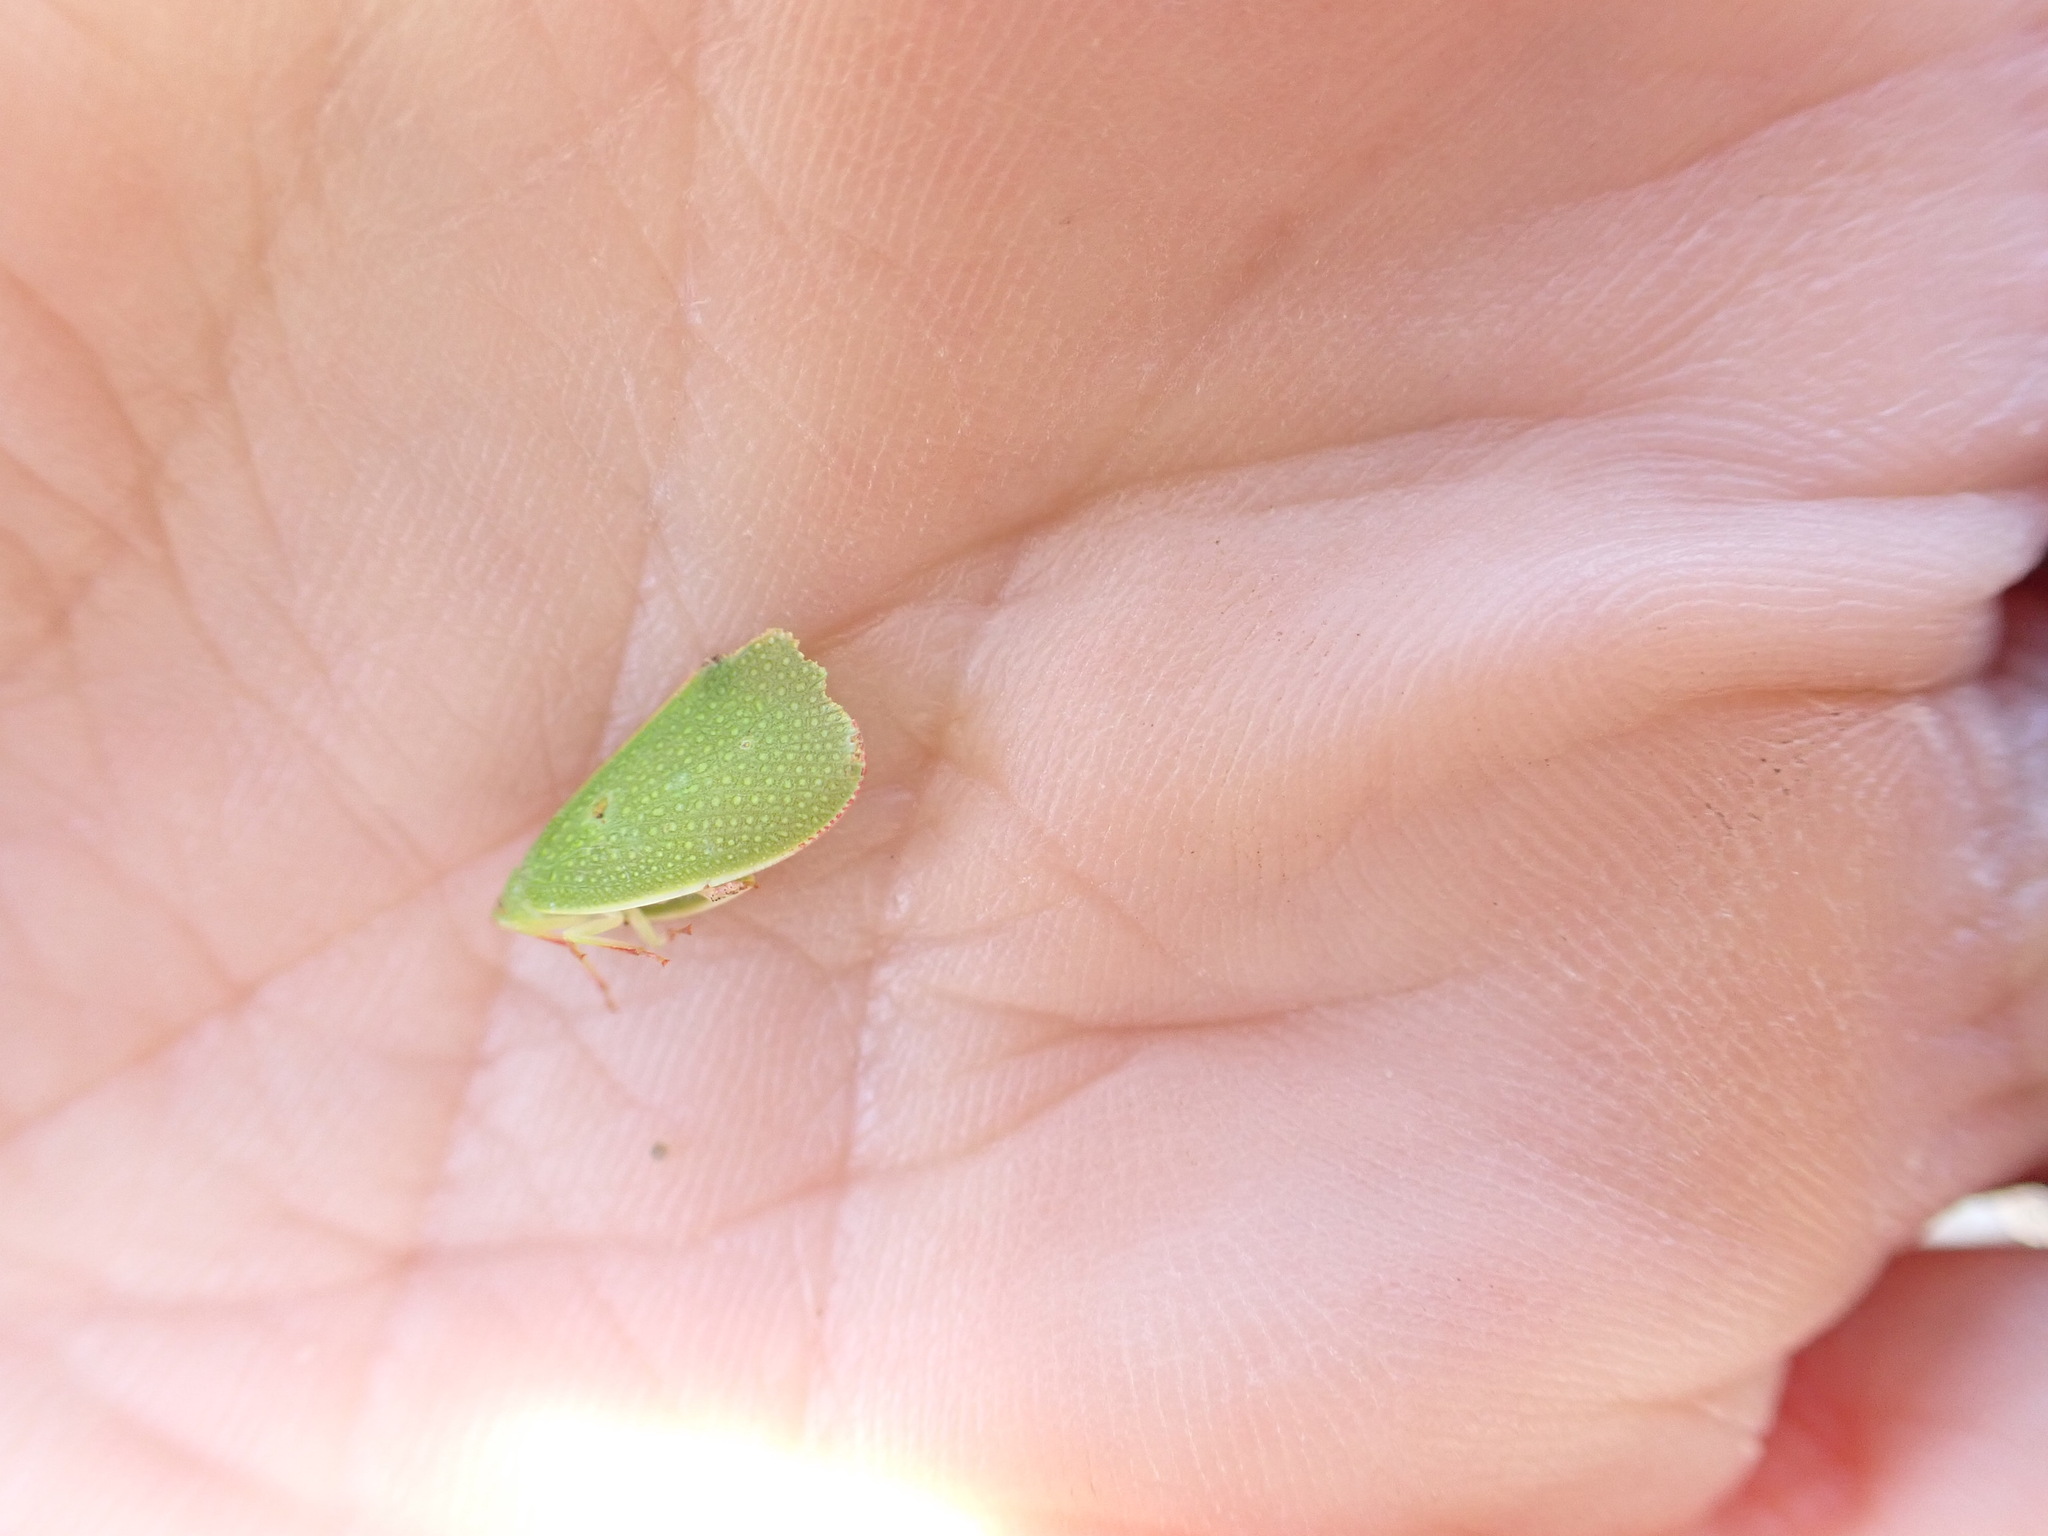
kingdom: Animalia
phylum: Arthropoda
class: Insecta
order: Hemiptera
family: Flatidae
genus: Siphanta
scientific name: Siphanta acuta
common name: Torpedo bug
